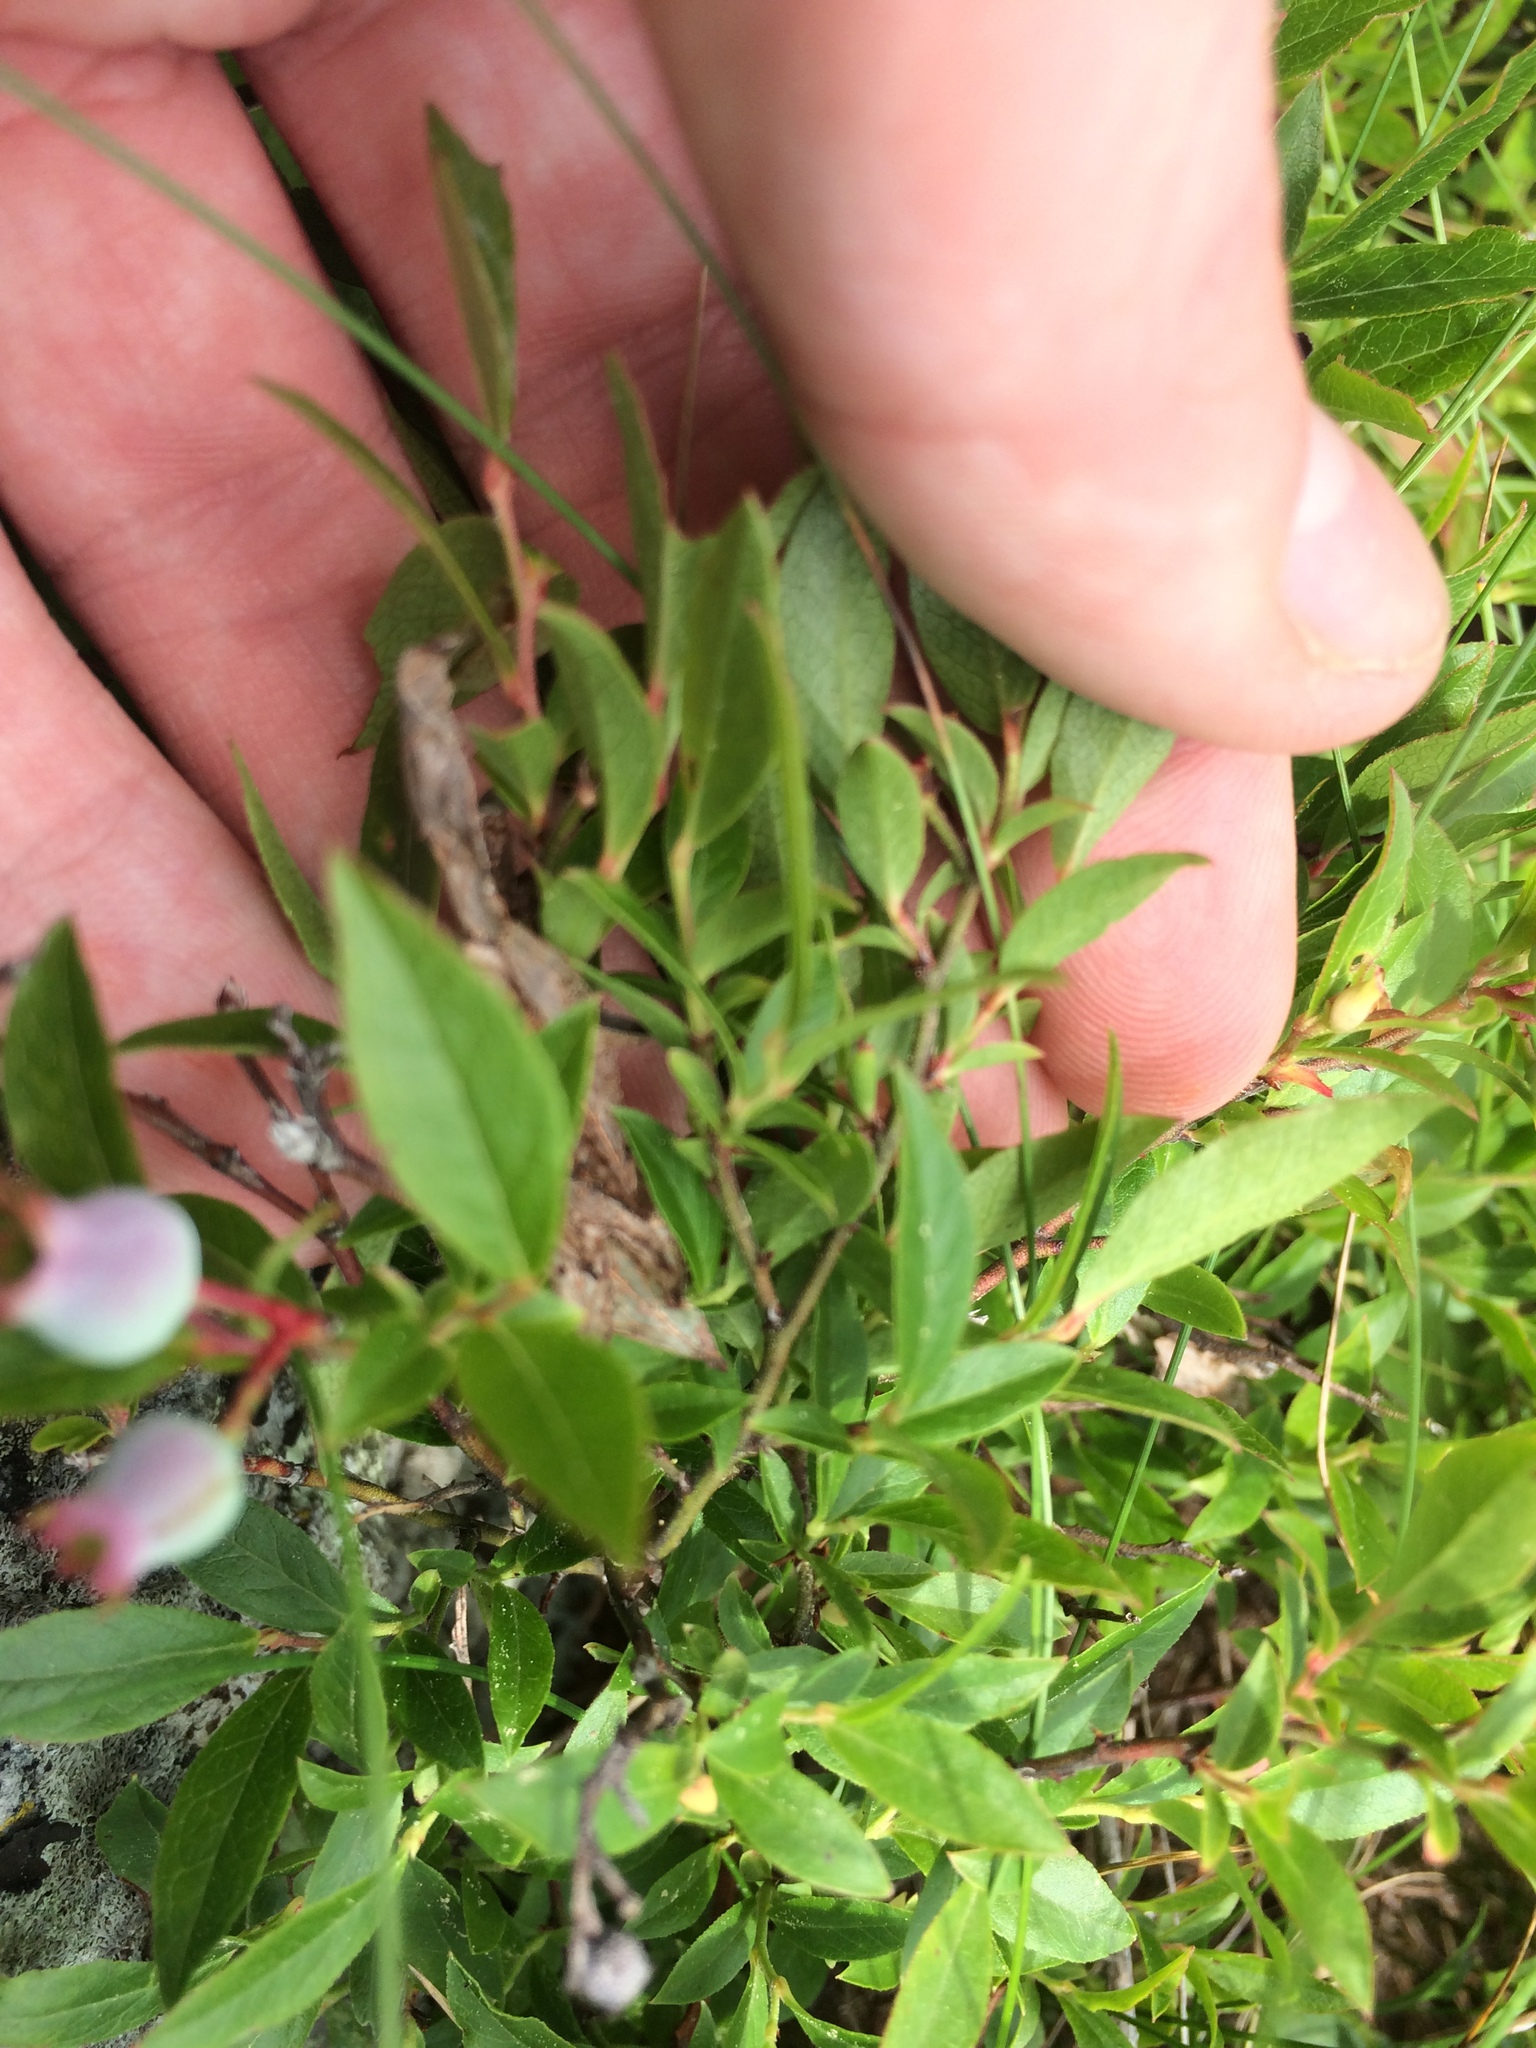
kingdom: Plantae
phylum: Tracheophyta
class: Magnoliopsida
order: Ericales
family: Ericaceae
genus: Vaccinium
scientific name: Vaccinium angustifolium
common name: Early lowbush blueberry
